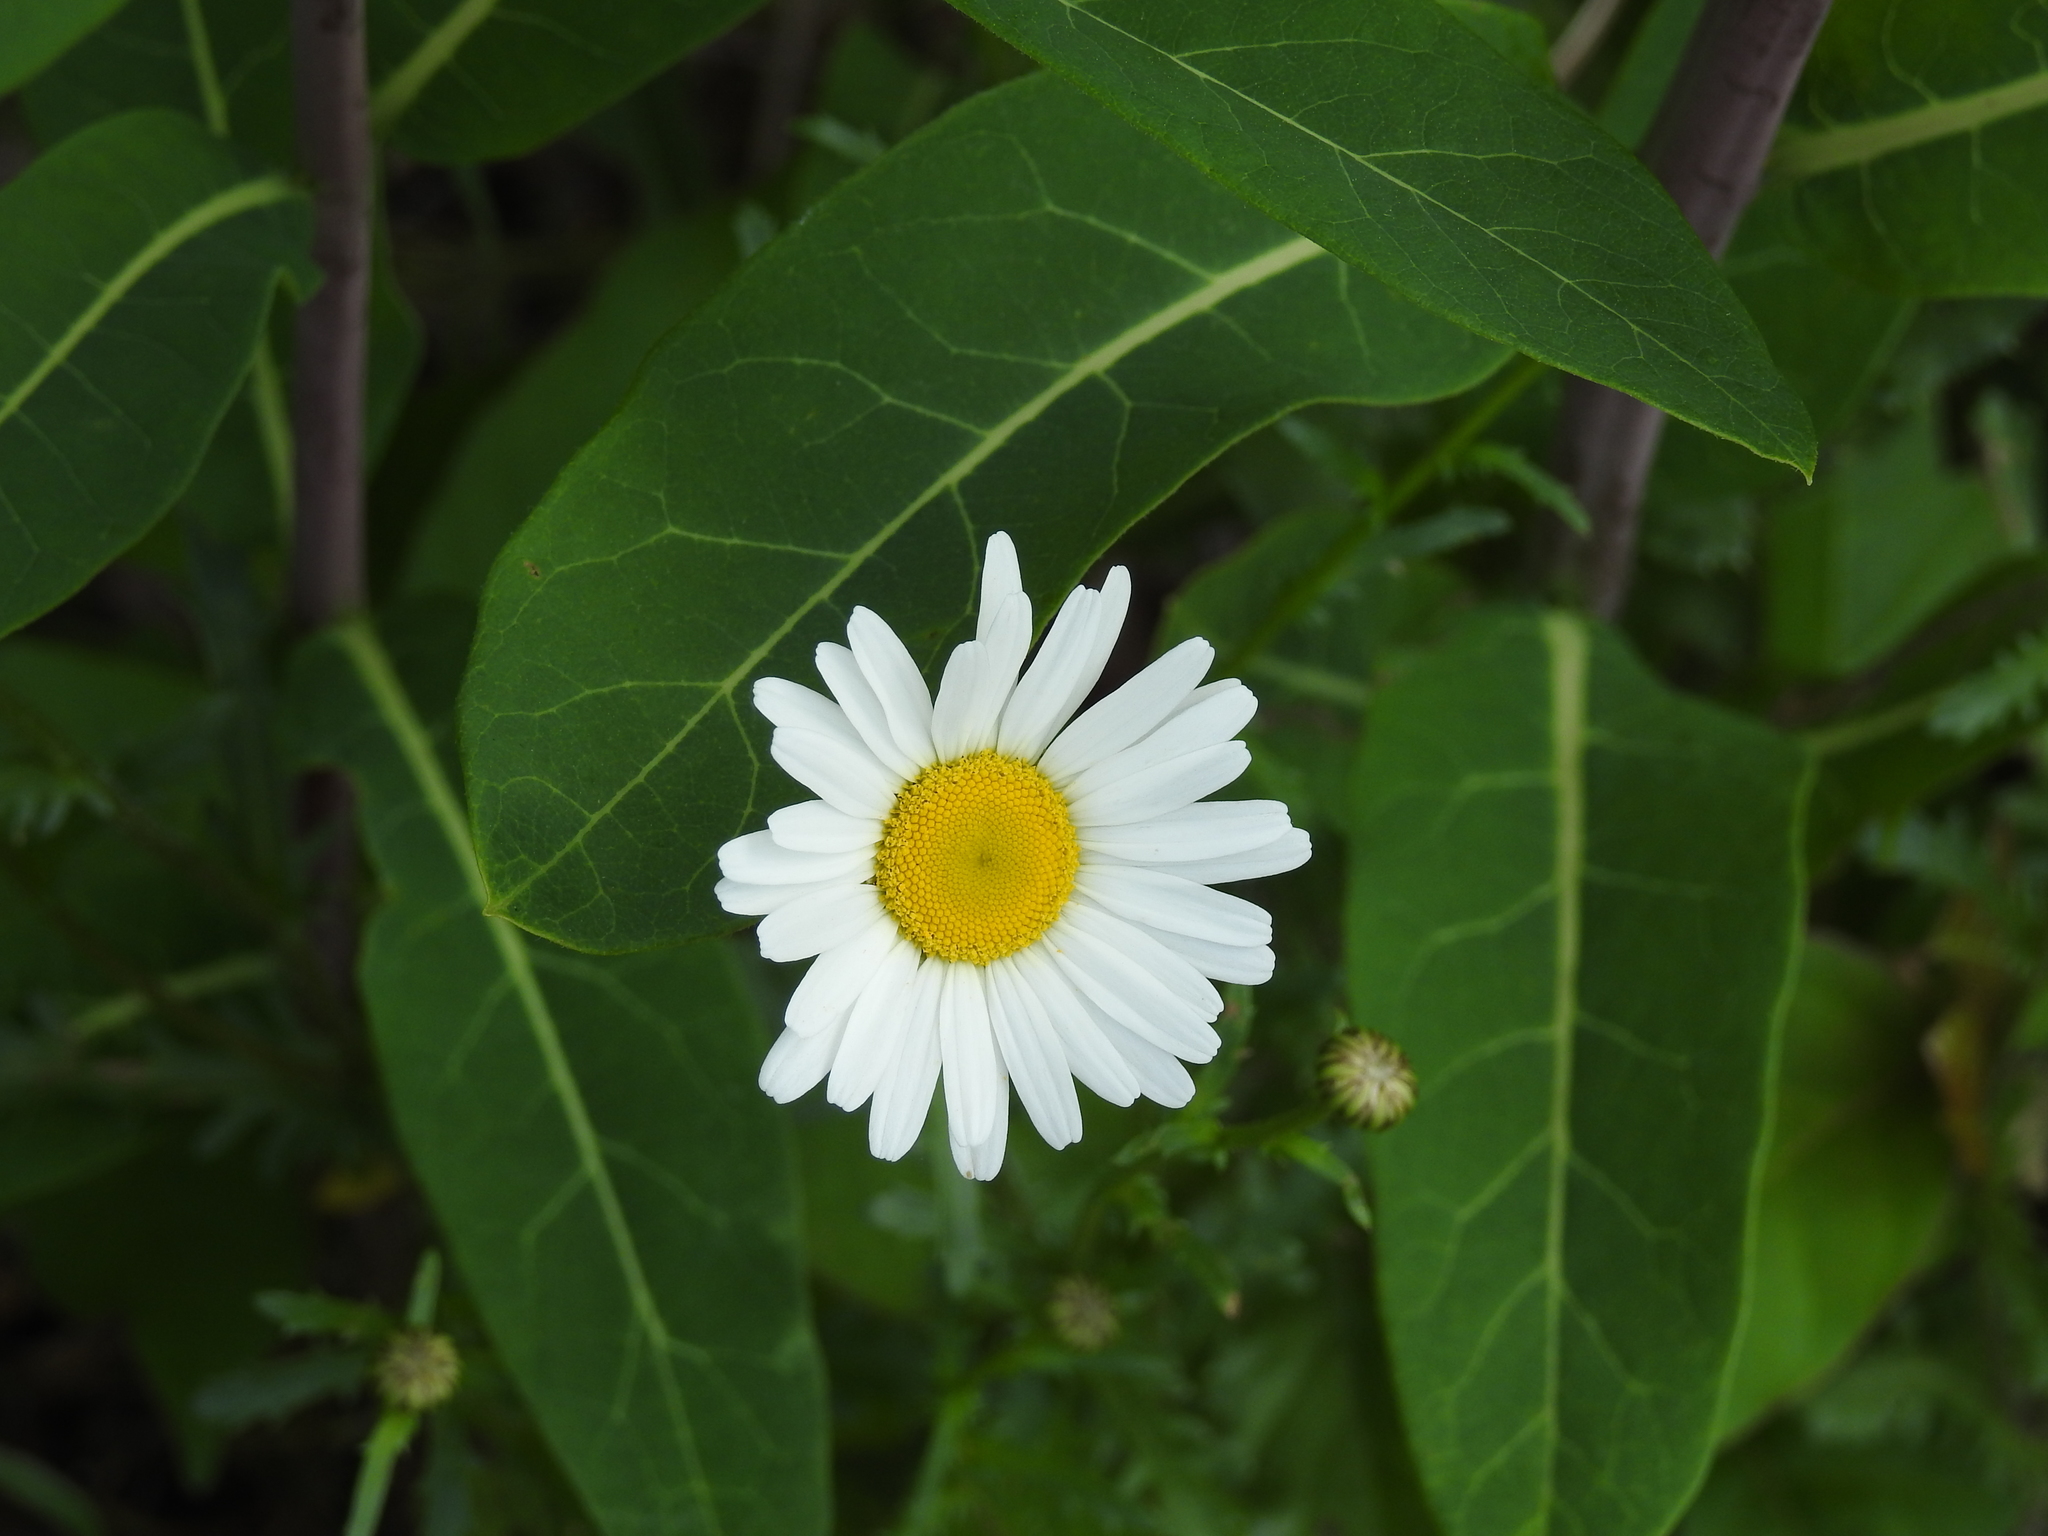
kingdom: Plantae
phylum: Tracheophyta
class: Magnoliopsida
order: Asterales
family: Asteraceae
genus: Leucanthemum
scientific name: Leucanthemum vulgare
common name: Oxeye daisy
